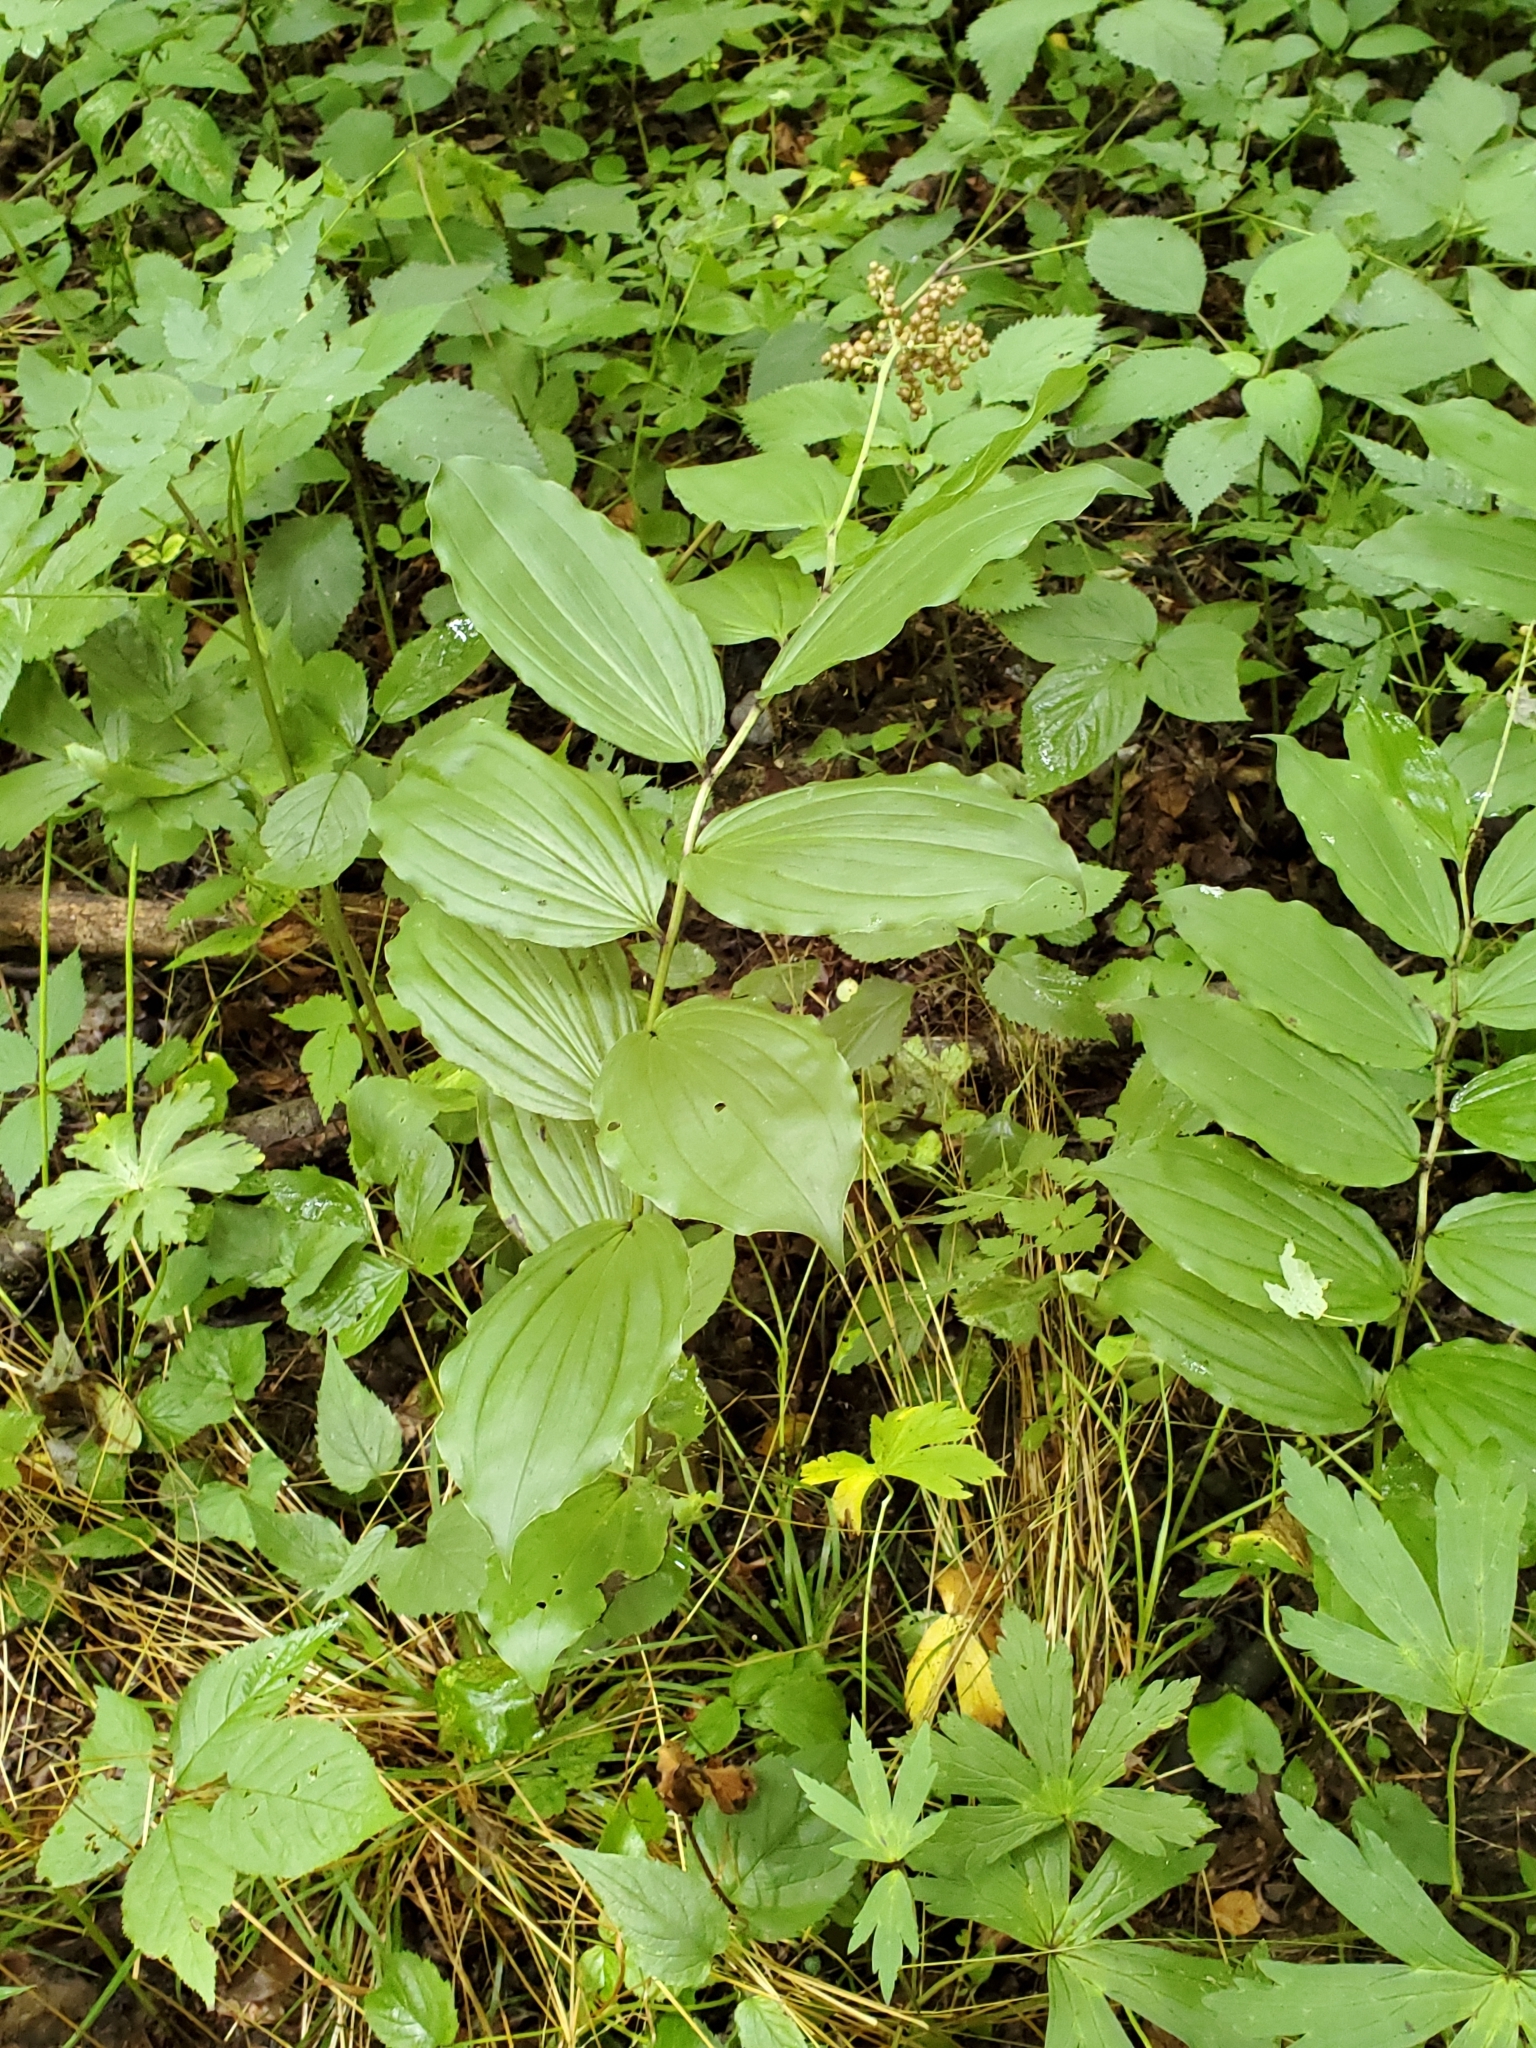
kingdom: Plantae
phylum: Tracheophyta
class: Liliopsida
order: Asparagales
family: Asparagaceae
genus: Maianthemum
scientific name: Maianthemum racemosum
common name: False spikenard
